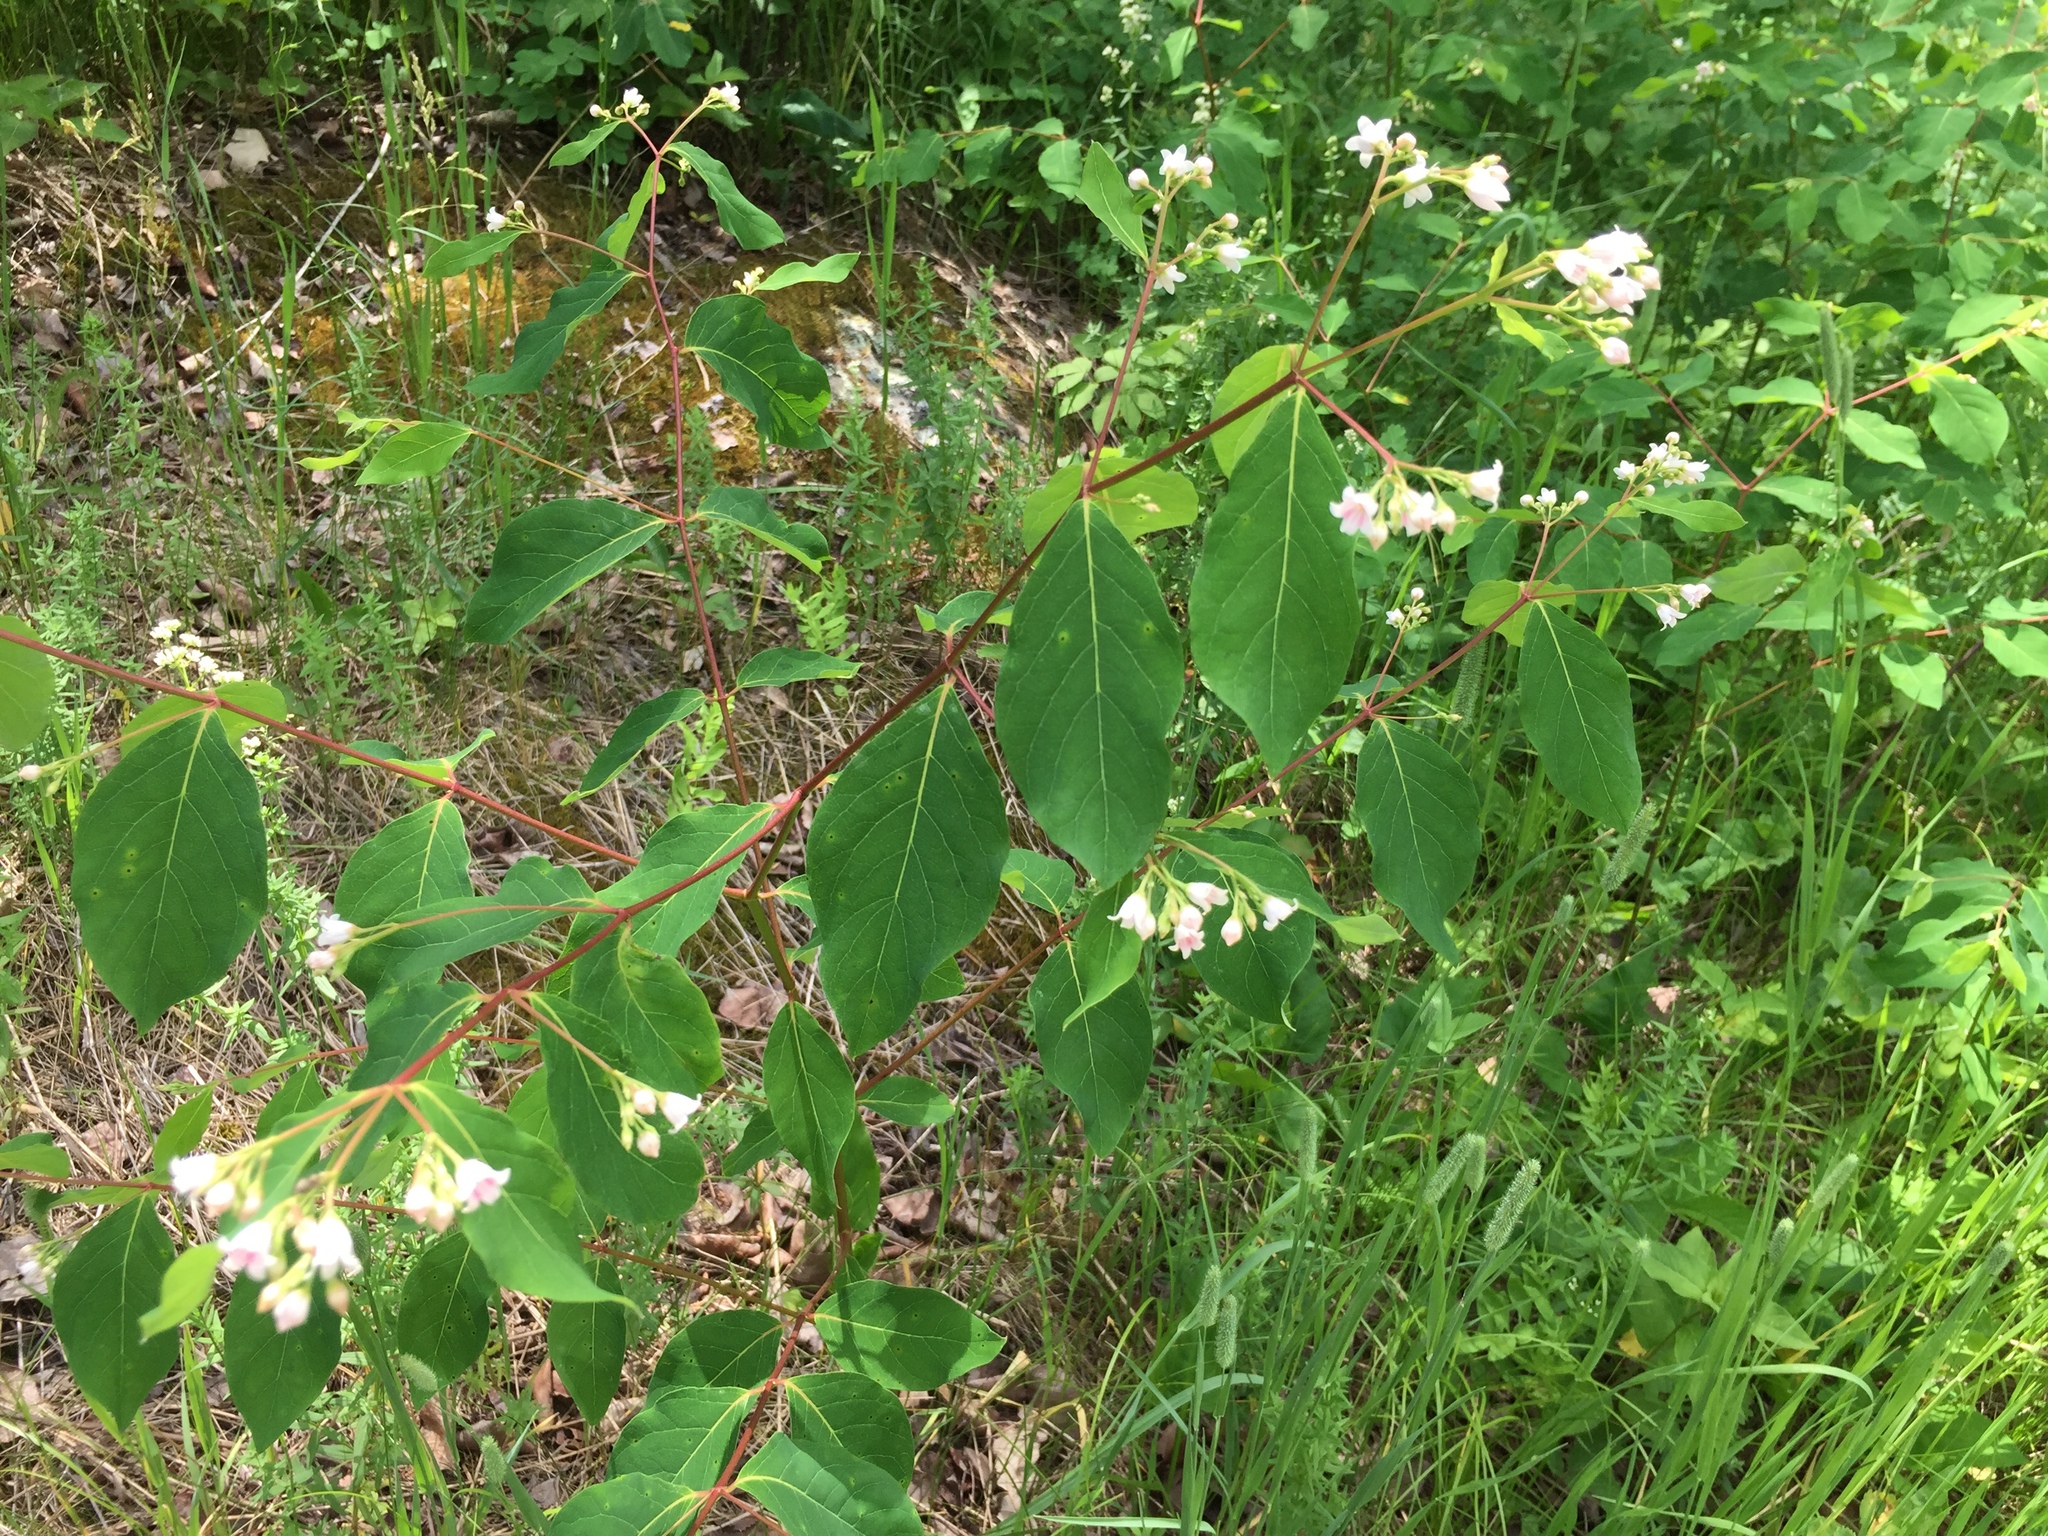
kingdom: Plantae
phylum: Tracheophyta
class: Magnoliopsida
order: Gentianales
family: Apocynaceae
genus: Apocynum
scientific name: Apocynum androsaemifolium
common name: Spreading dogbane
